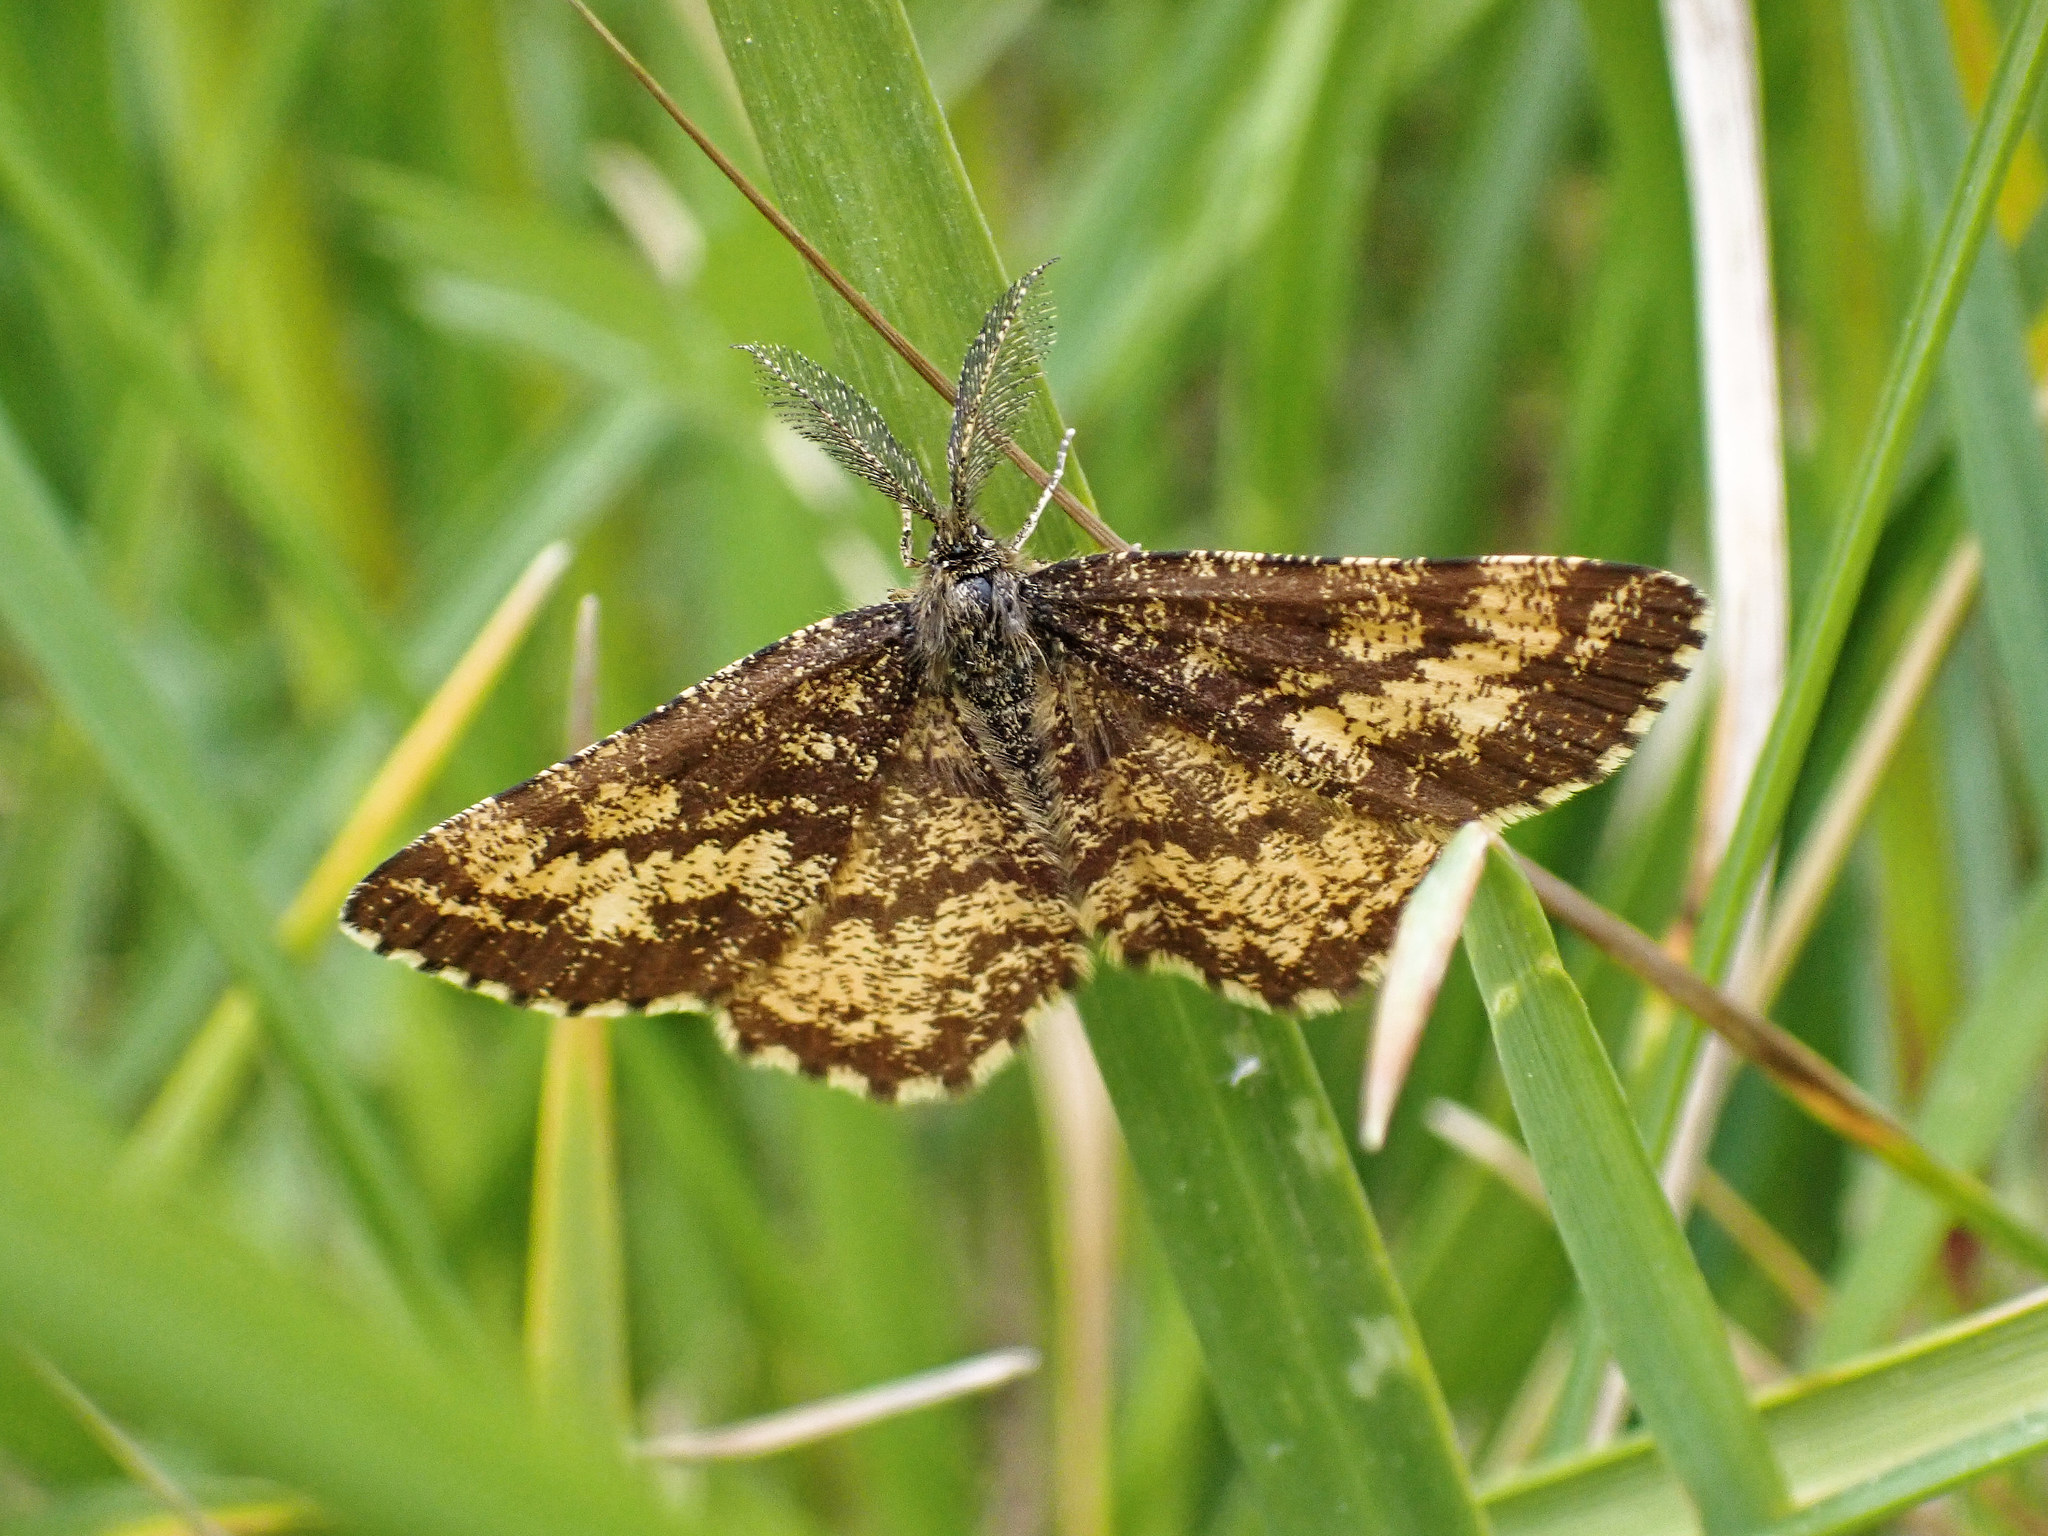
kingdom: Animalia
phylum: Arthropoda
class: Insecta
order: Lepidoptera
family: Geometridae
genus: Ematurga
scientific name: Ematurga atomaria
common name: Common heath
